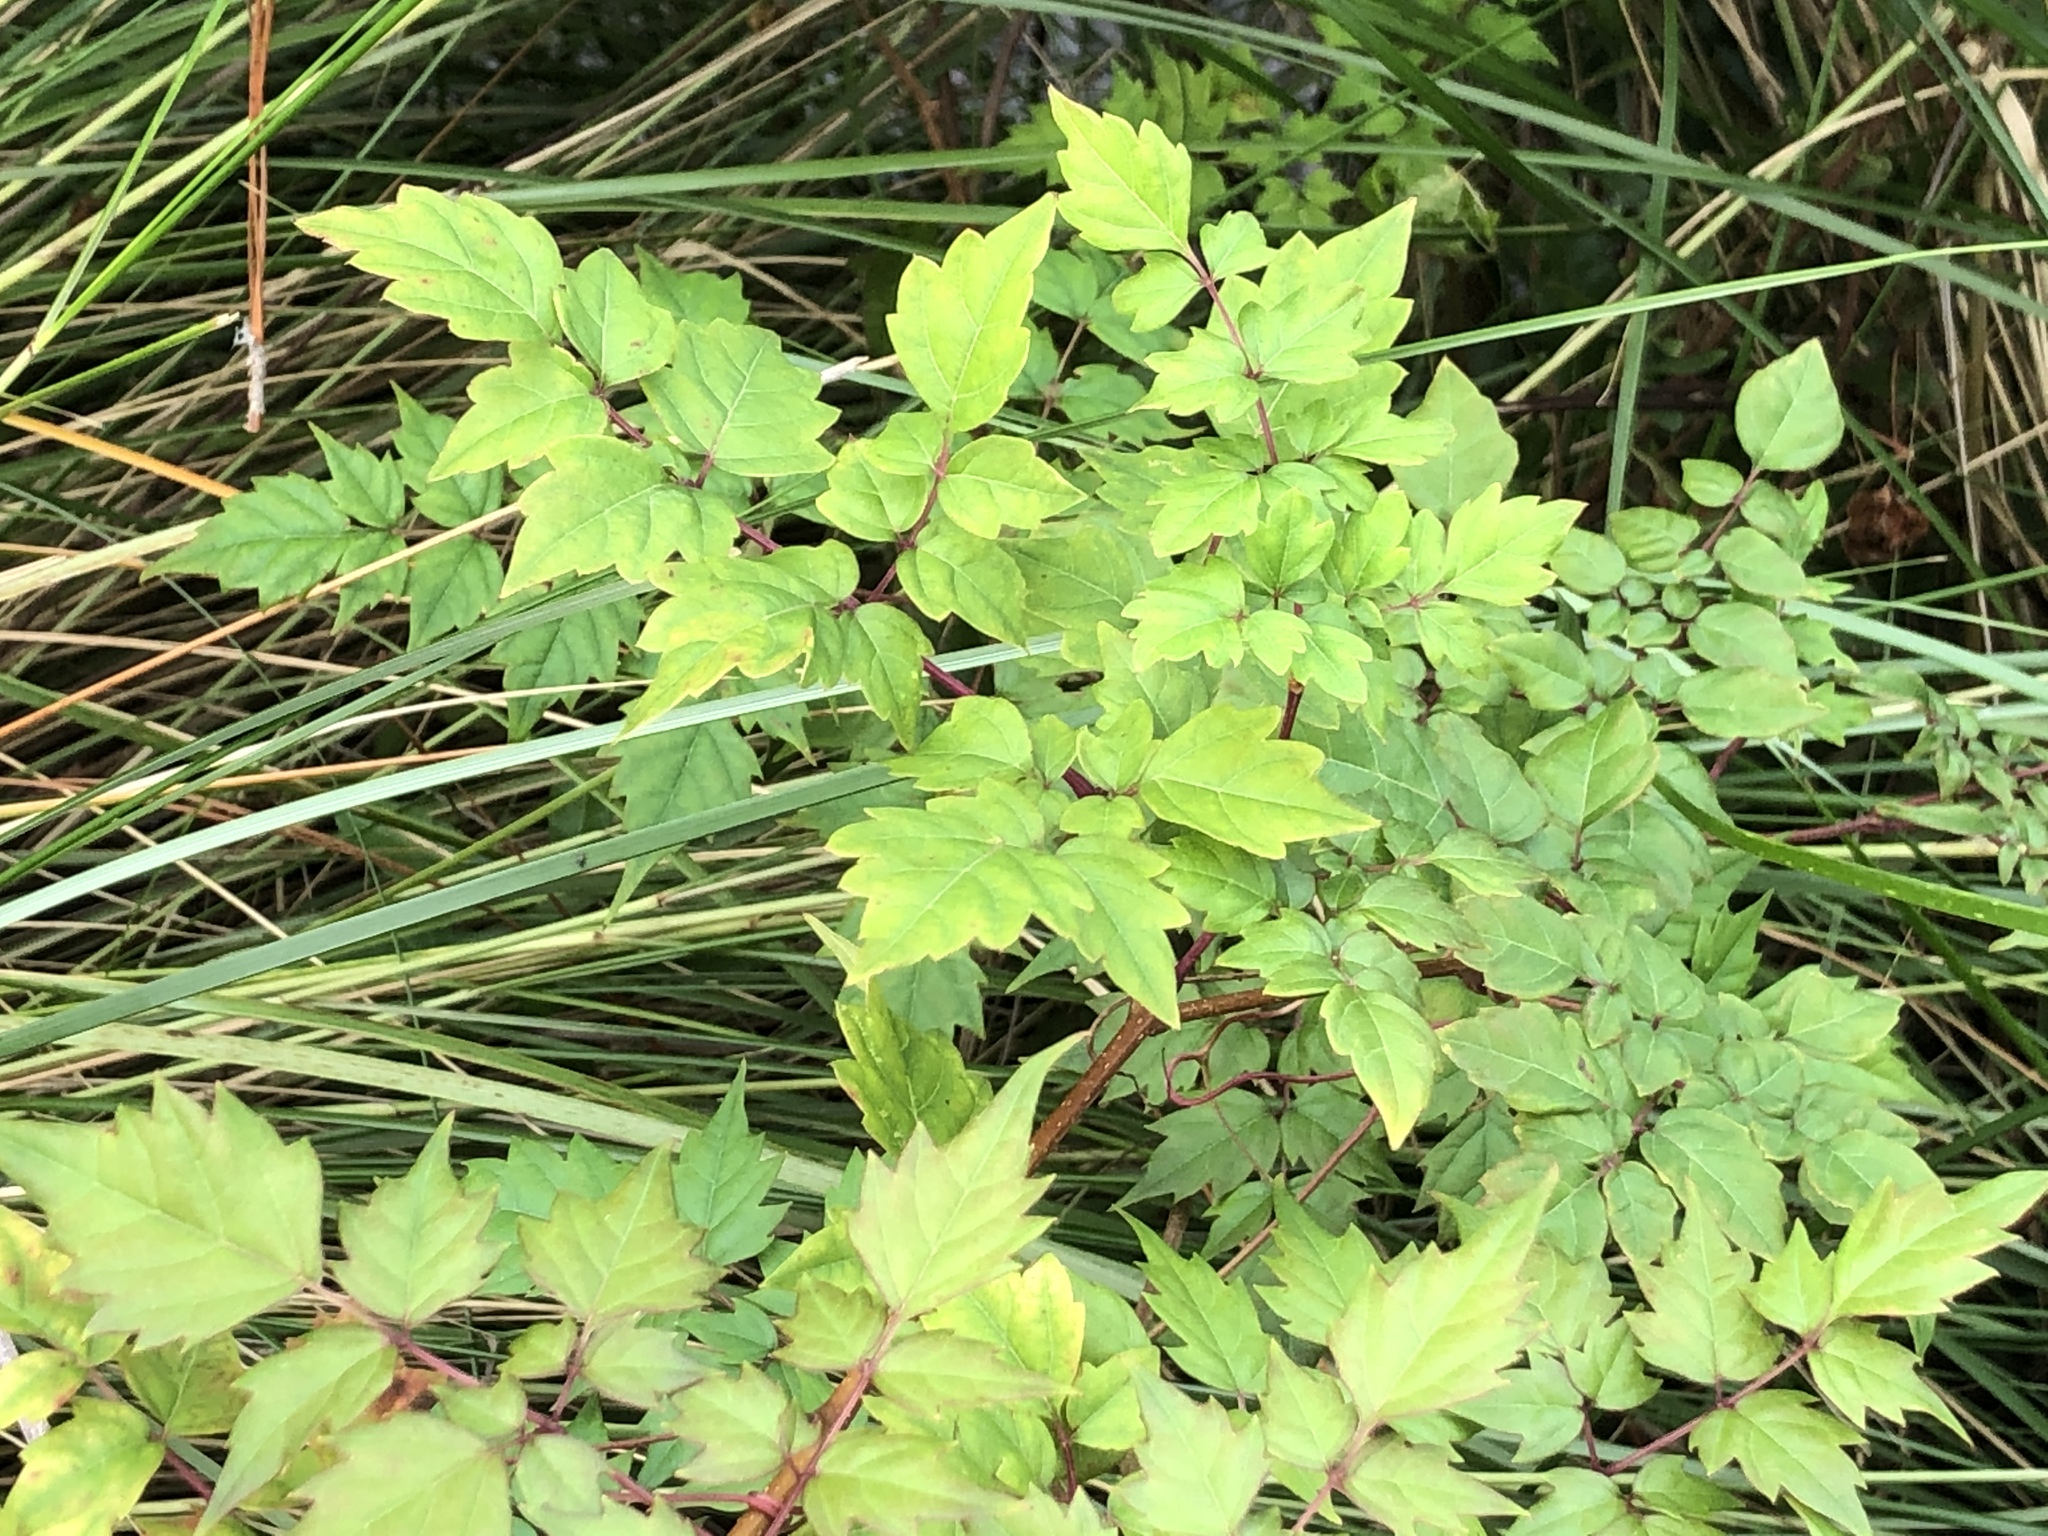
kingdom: Plantae
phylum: Tracheophyta
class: Magnoliopsida
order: Vitales
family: Vitaceae
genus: Nekemias
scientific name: Nekemias arborea
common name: Peppervine
